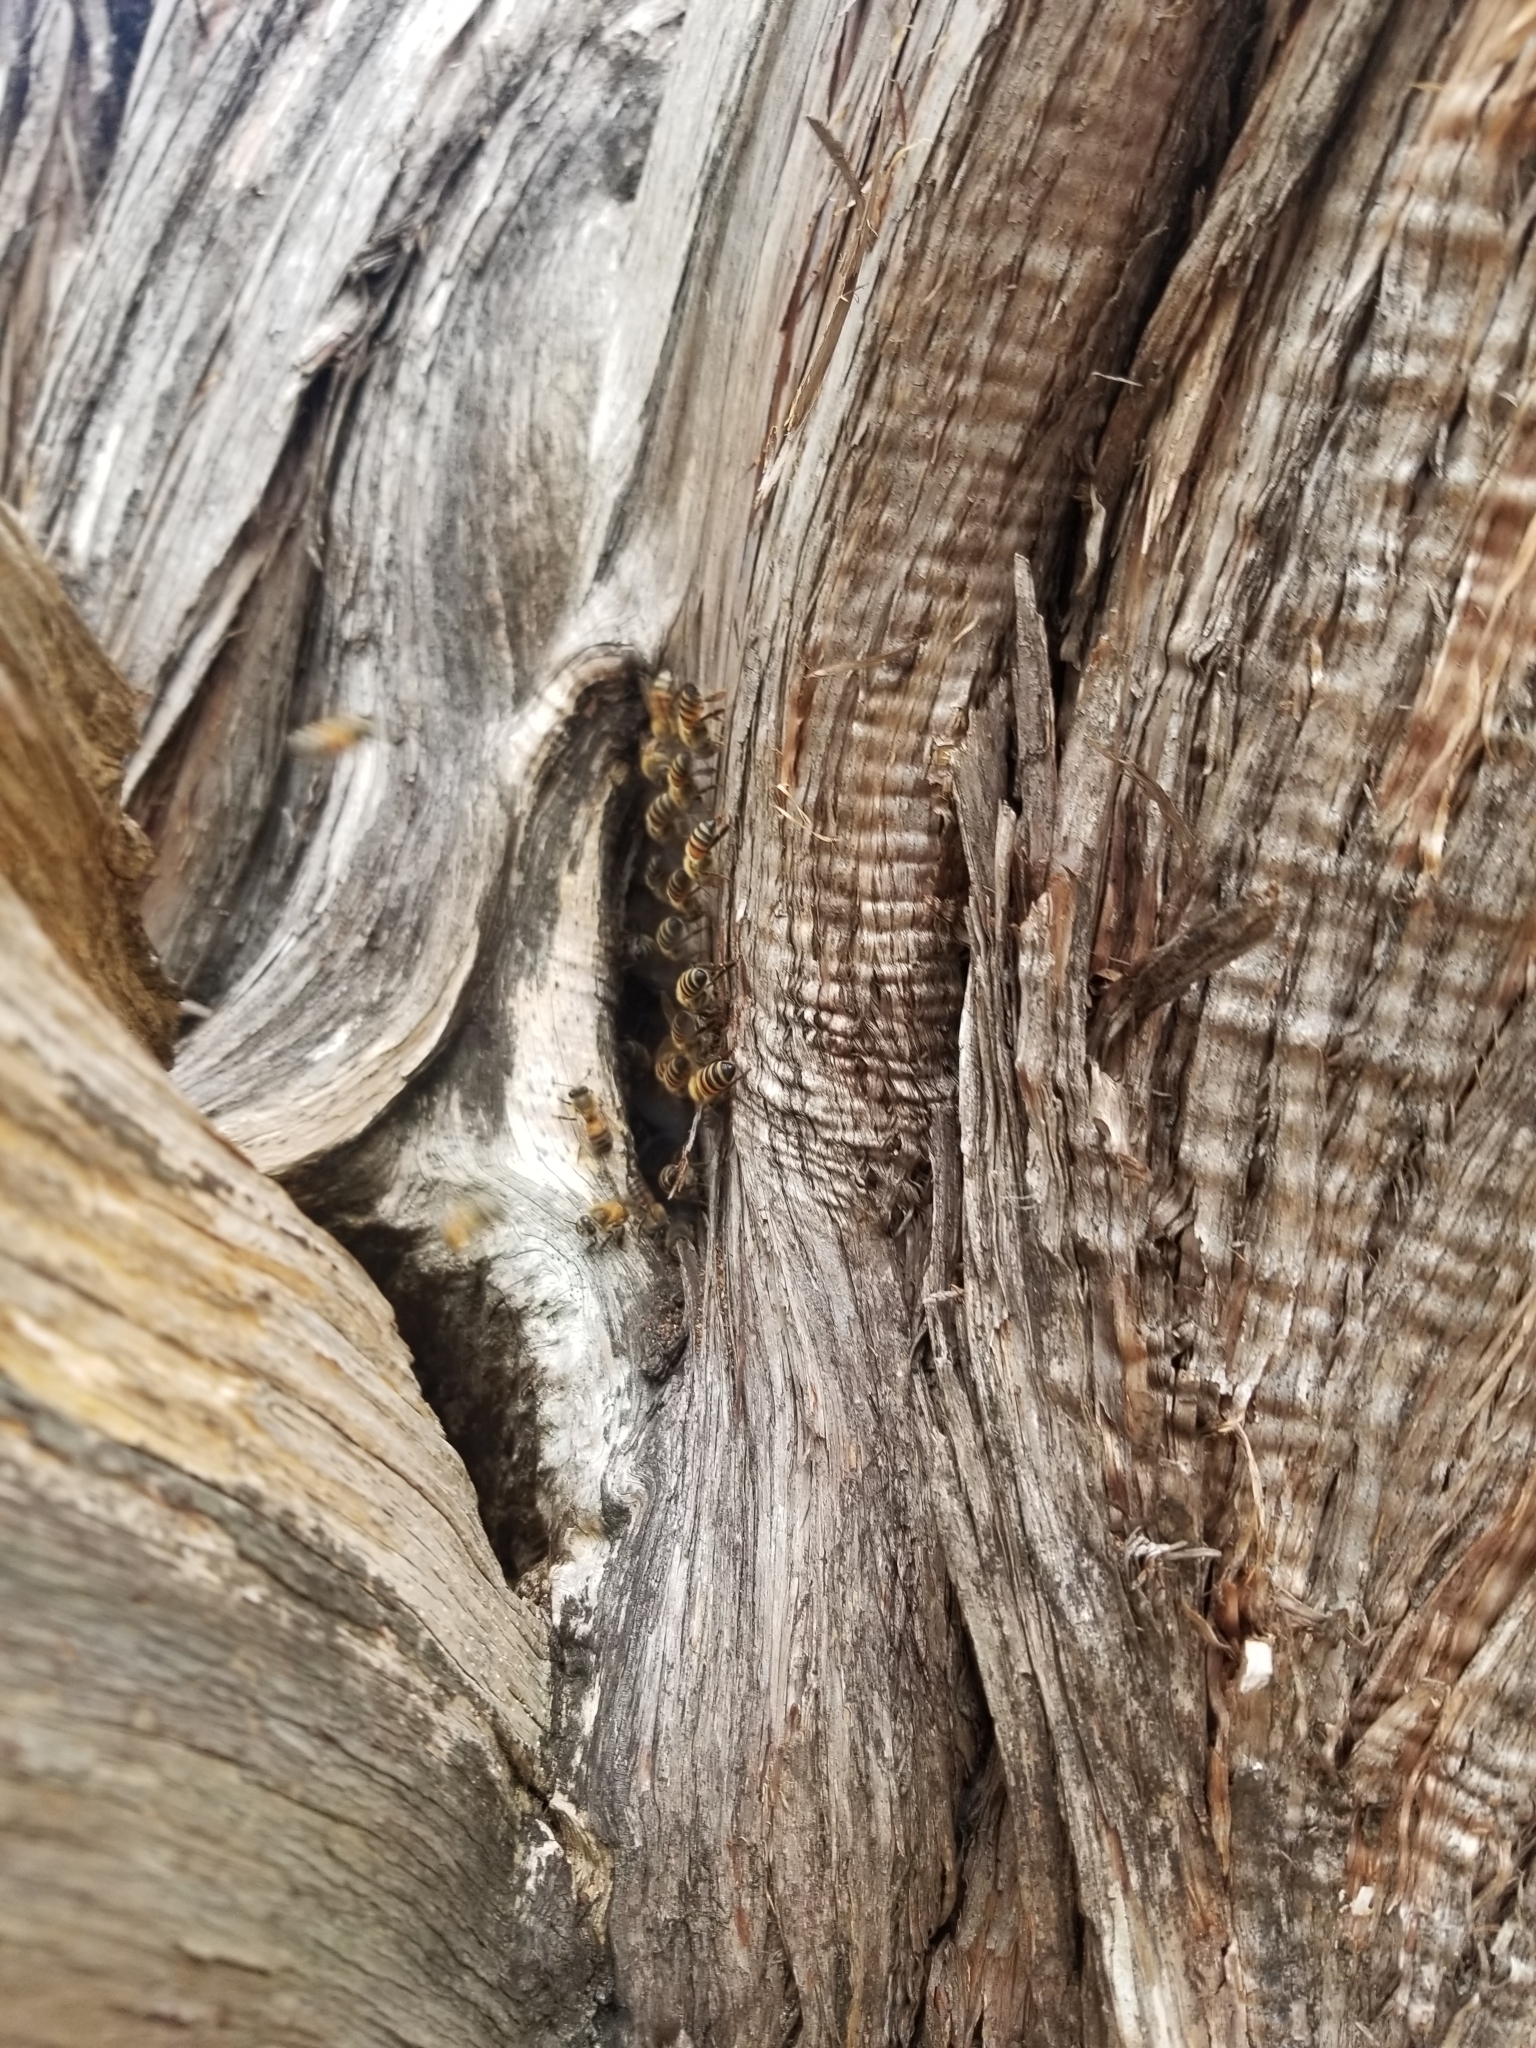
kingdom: Animalia
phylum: Arthropoda
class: Insecta
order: Hymenoptera
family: Apidae
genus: Apis
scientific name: Apis mellifera
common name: Honey bee
